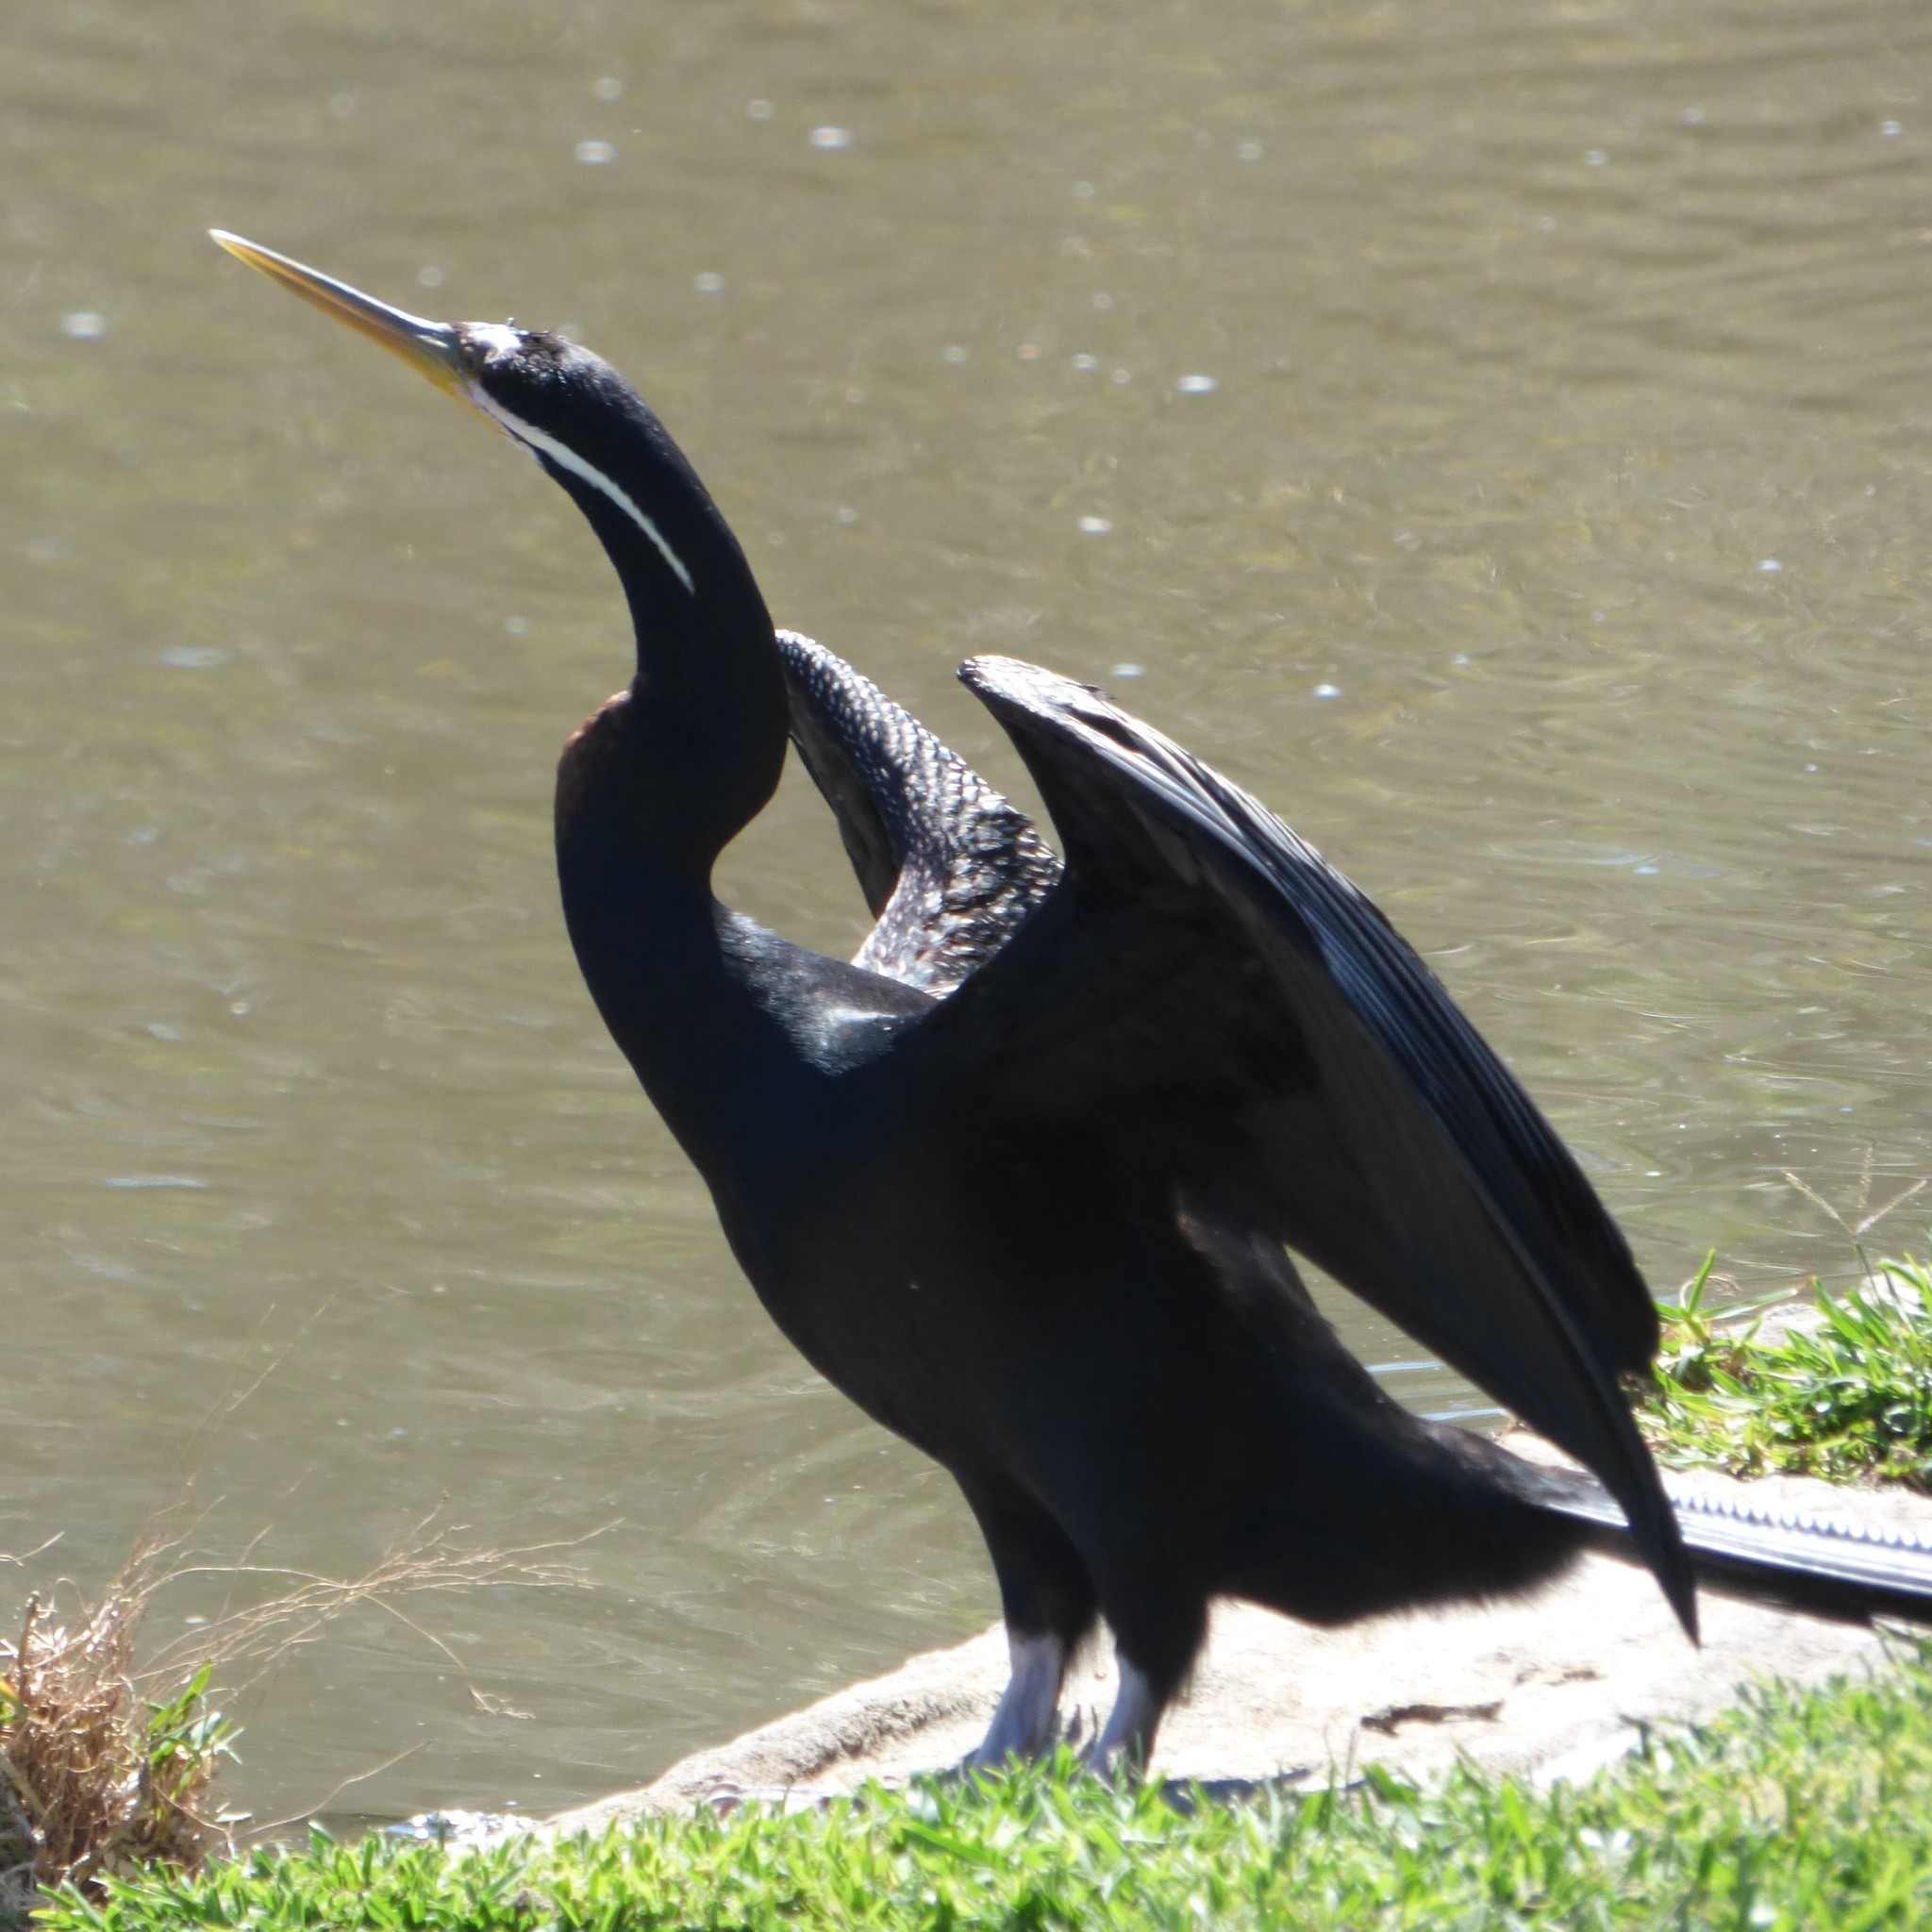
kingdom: Animalia
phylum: Chordata
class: Aves
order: Suliformes
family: Anhingidae
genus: Anhinga
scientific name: Anhinga novaehollandiae
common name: Australasian darter
